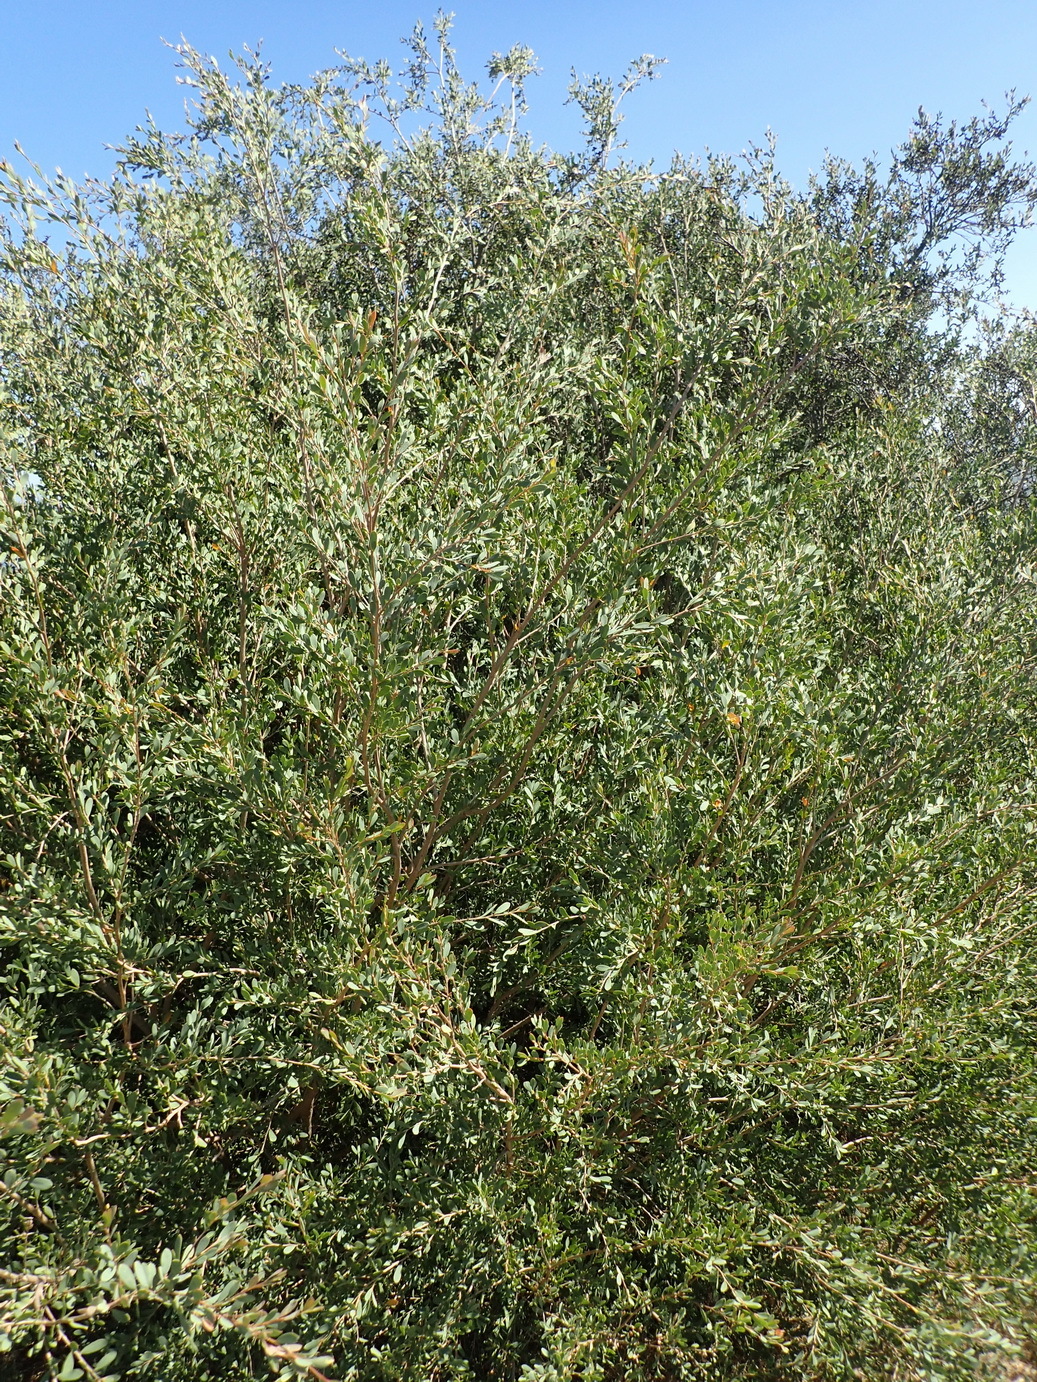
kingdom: Plantae
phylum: Tracheophyta
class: Magnoliopsida
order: Myrtales
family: Myrtaceae
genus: Leptospermum
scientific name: Leptospermum laevigatum
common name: Australian teatree
